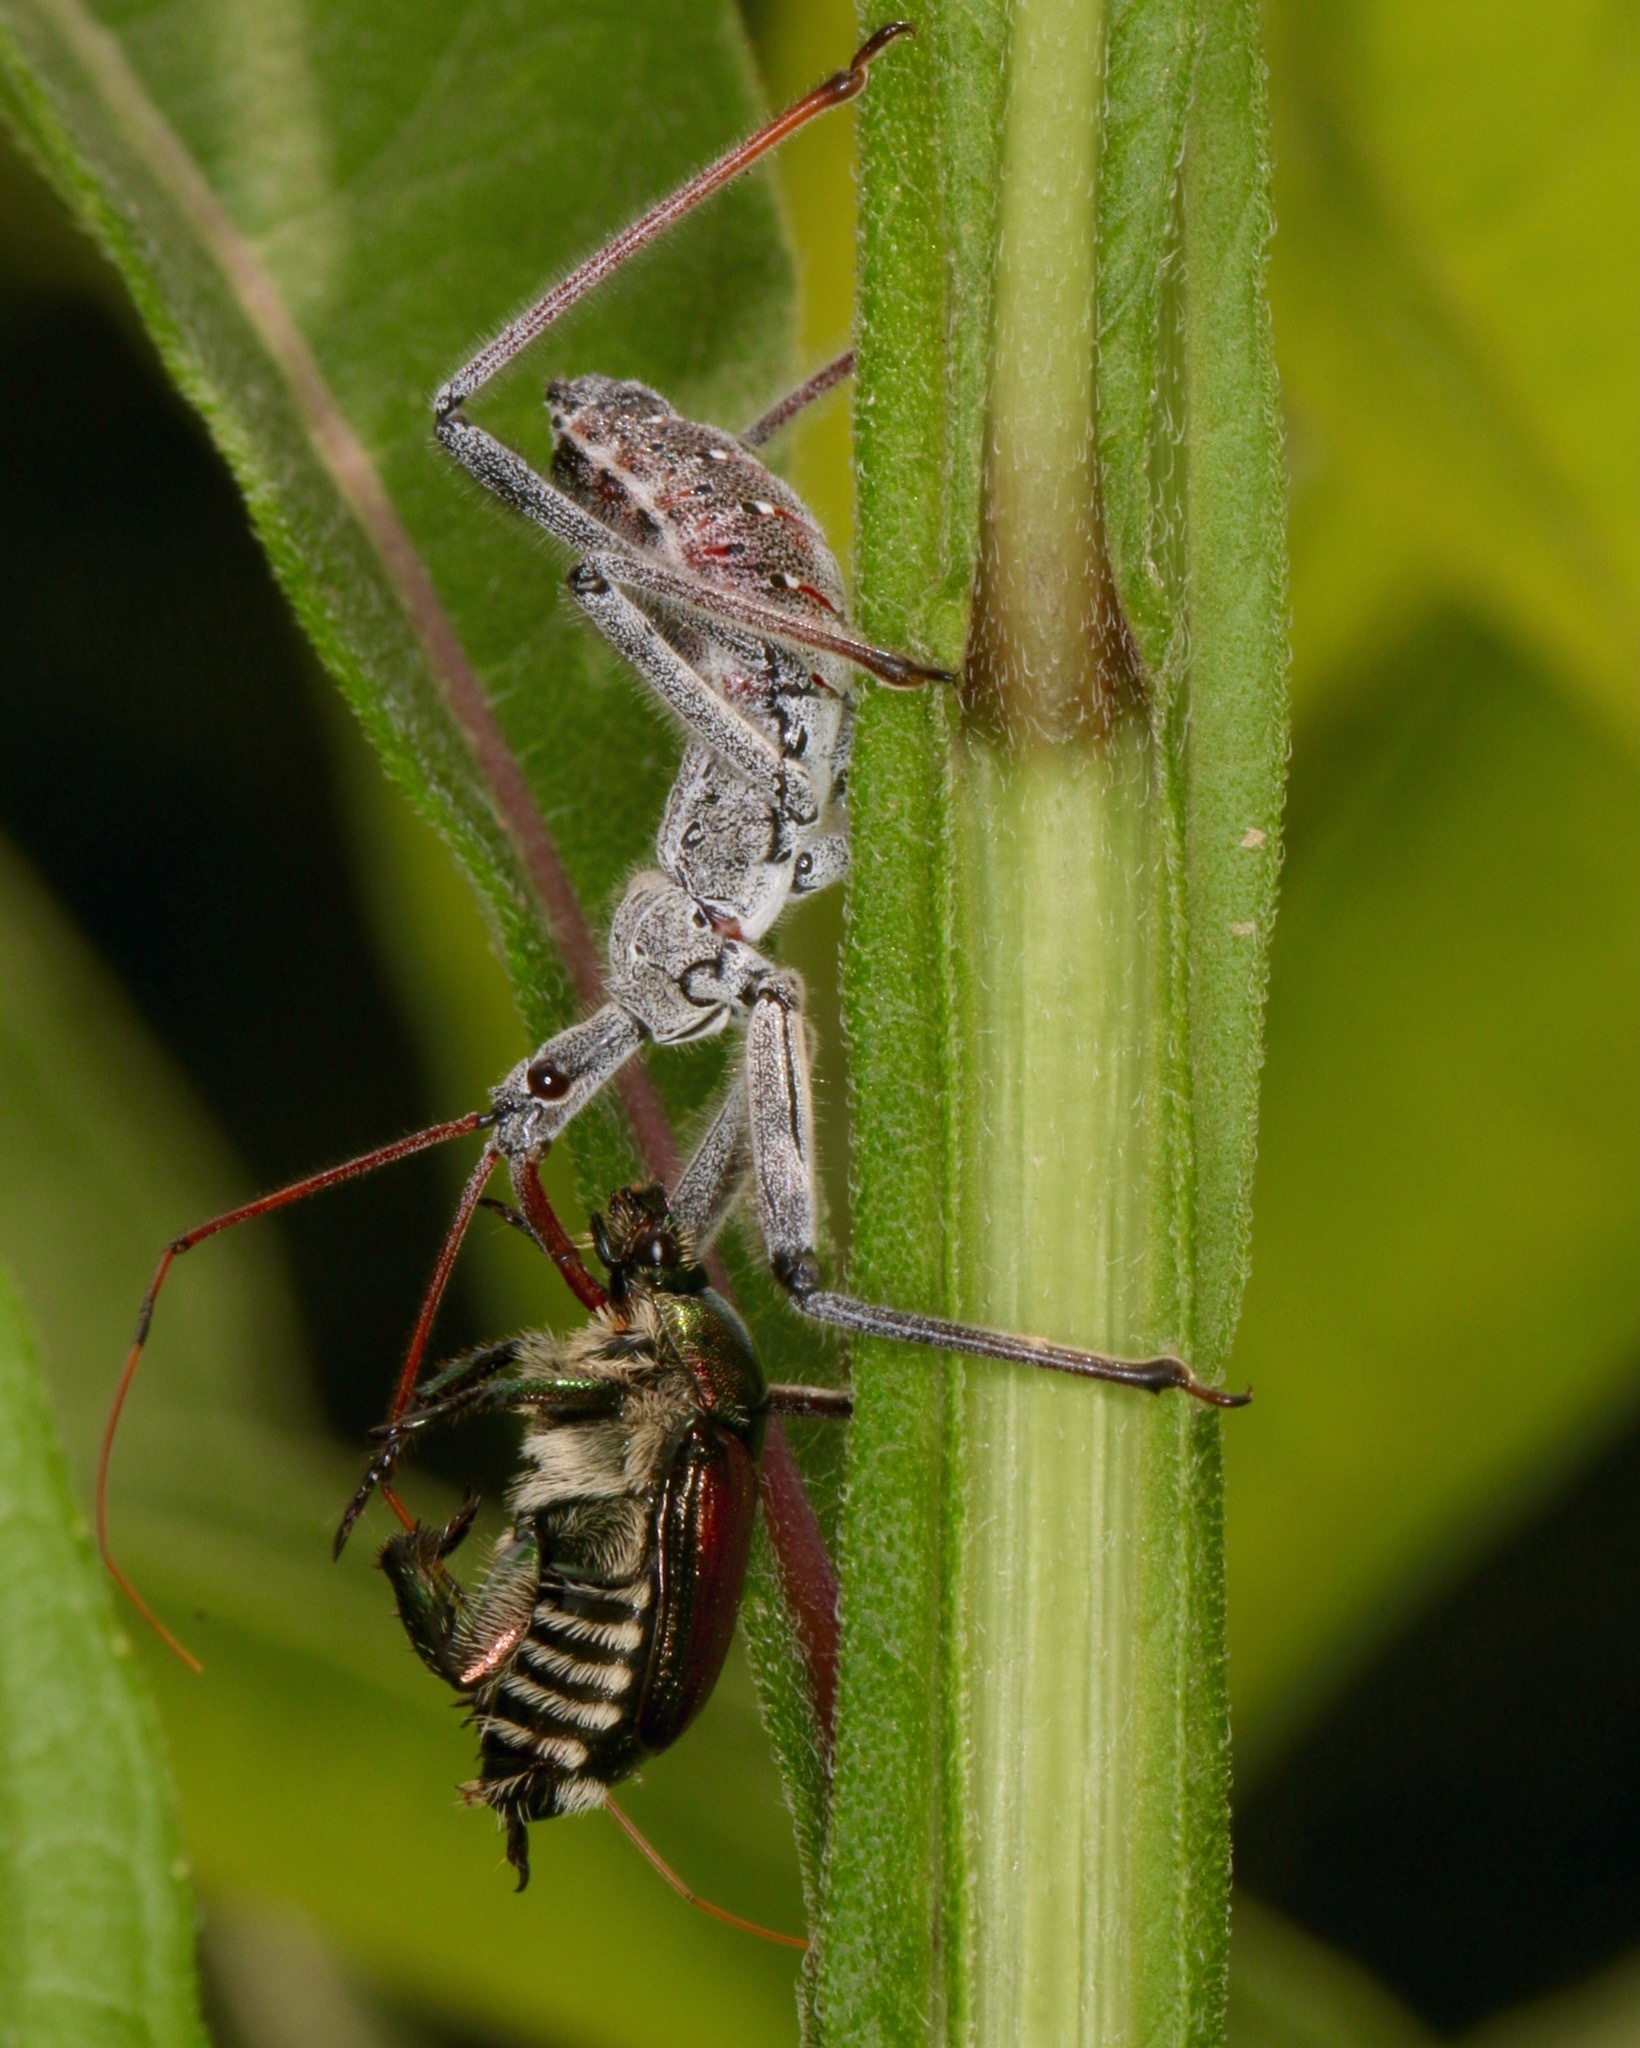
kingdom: Animalia
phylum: Arthropoda
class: Insecta
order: Hemiptera
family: Reduviidae
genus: Arilus
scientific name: Arilus cristatus
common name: North american wheel bug
